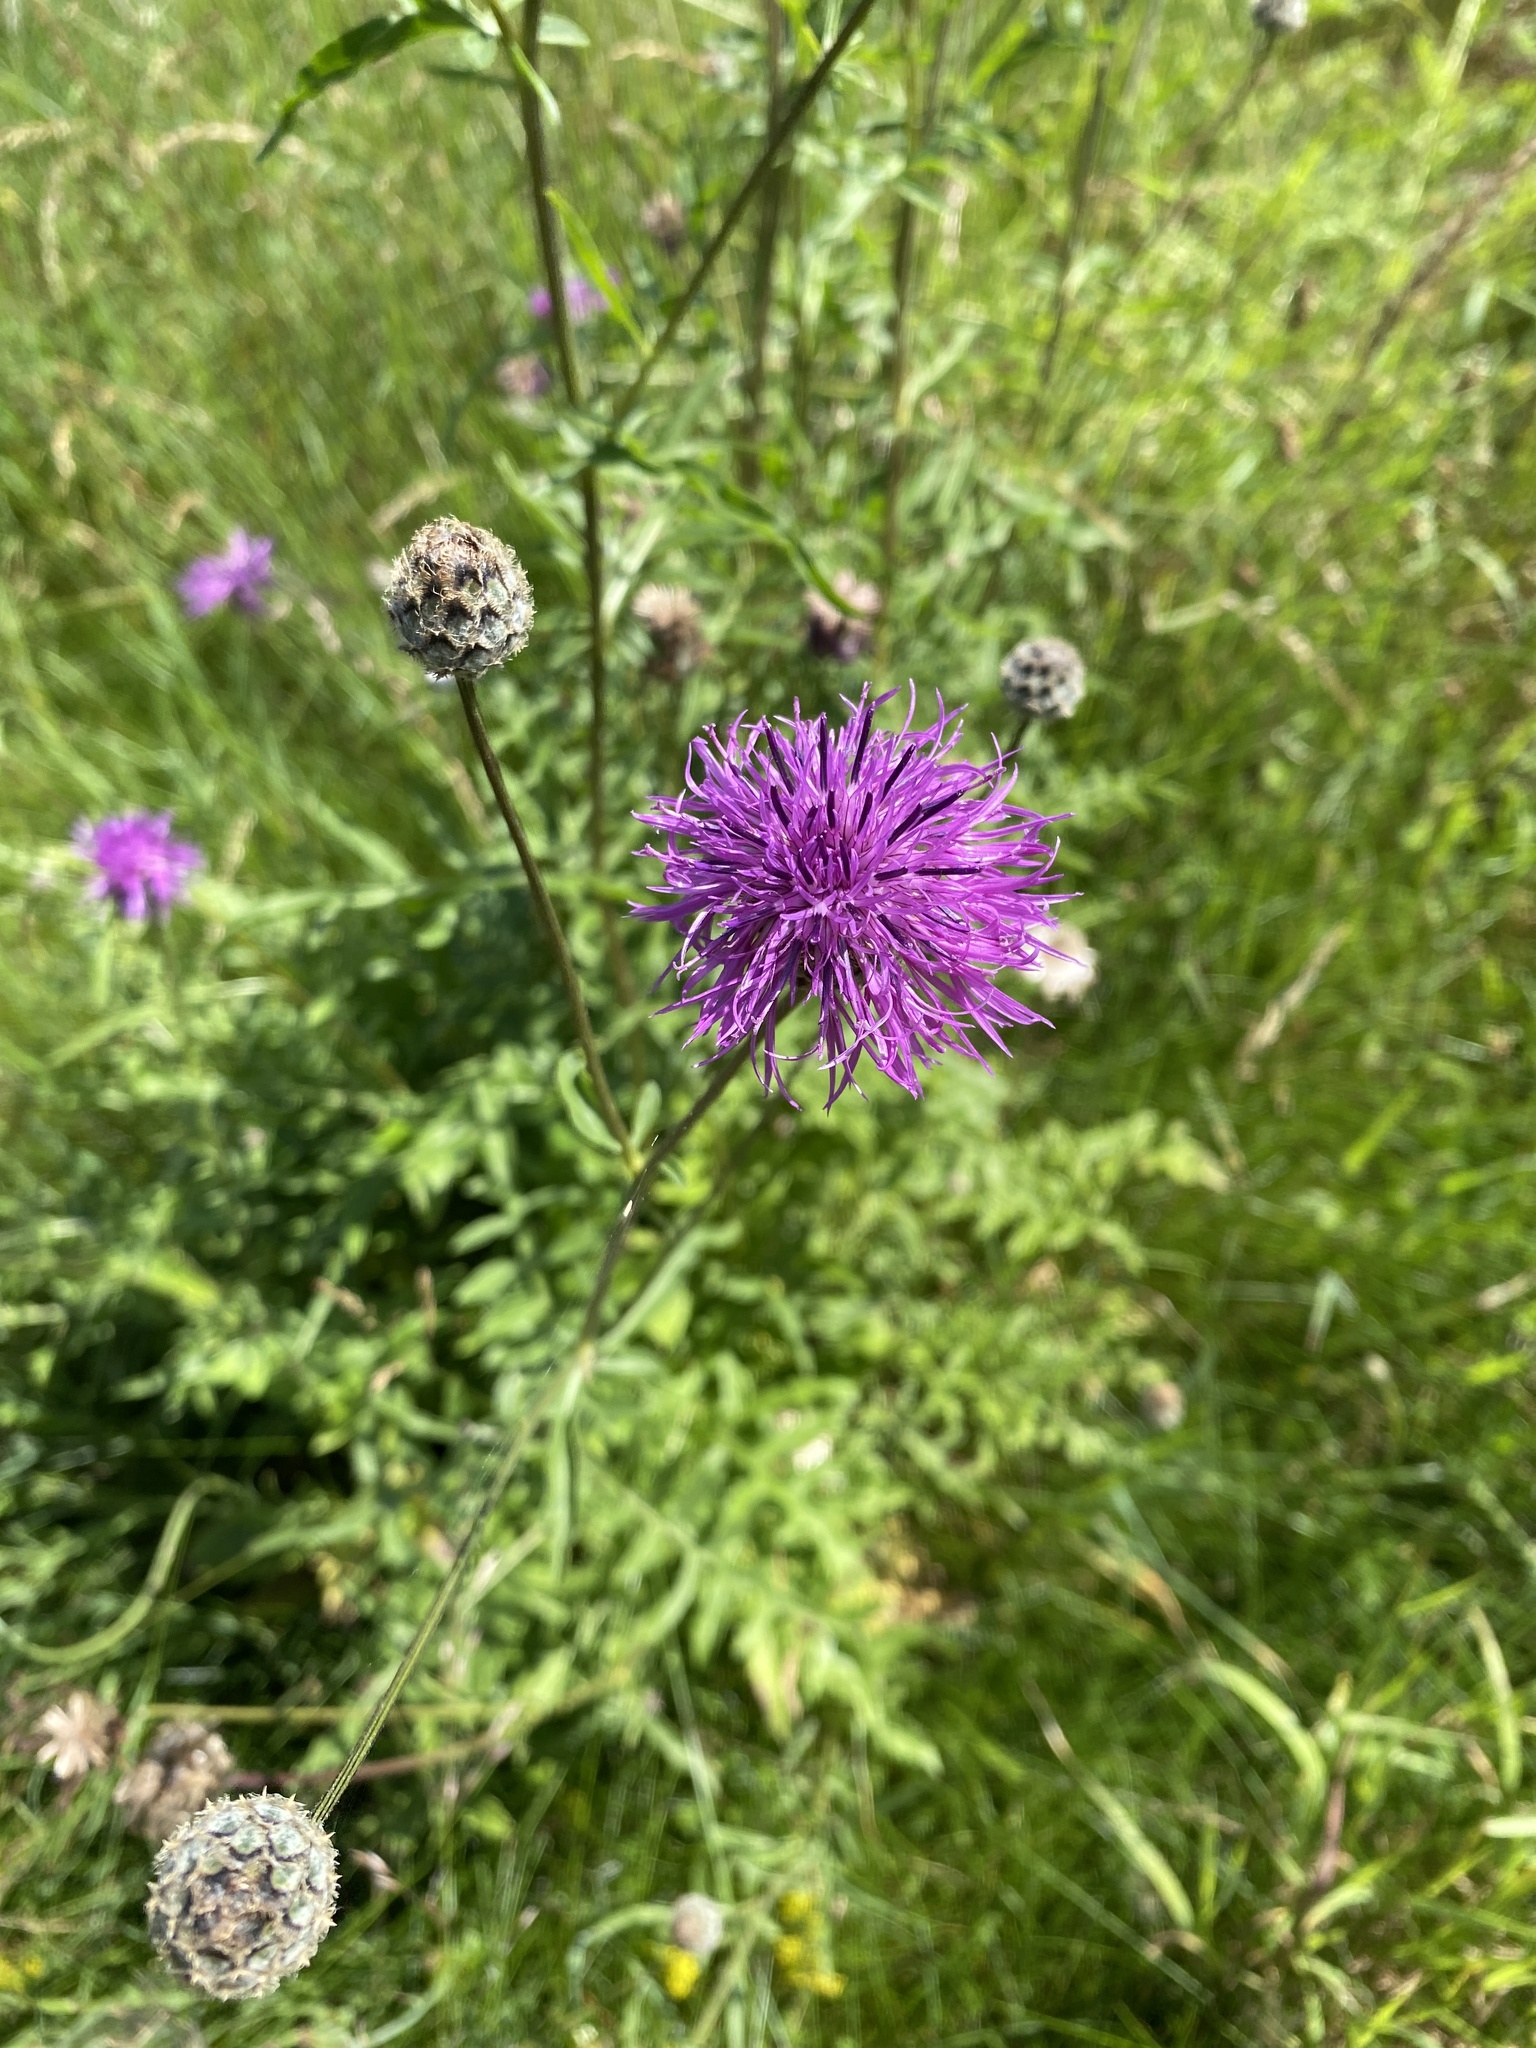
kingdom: Plantae
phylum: Tracheophyta
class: Magnoliopsida
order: Asterales
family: Asteraceae
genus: Centaurea
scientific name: Centaurea scabiosa
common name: Greater knapweed
